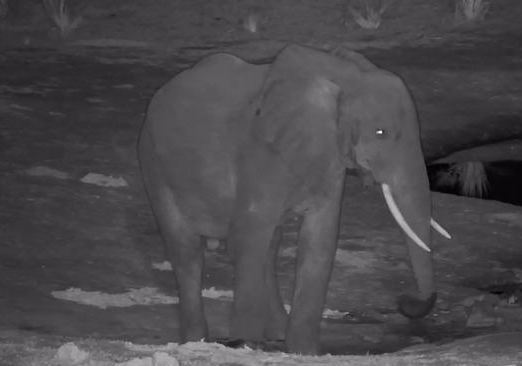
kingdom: Animalia
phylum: Chordata
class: Mammalia
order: Proboscidea
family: Elephantidae
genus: Loxodonta
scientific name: Loxodonta africana
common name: African elephant
